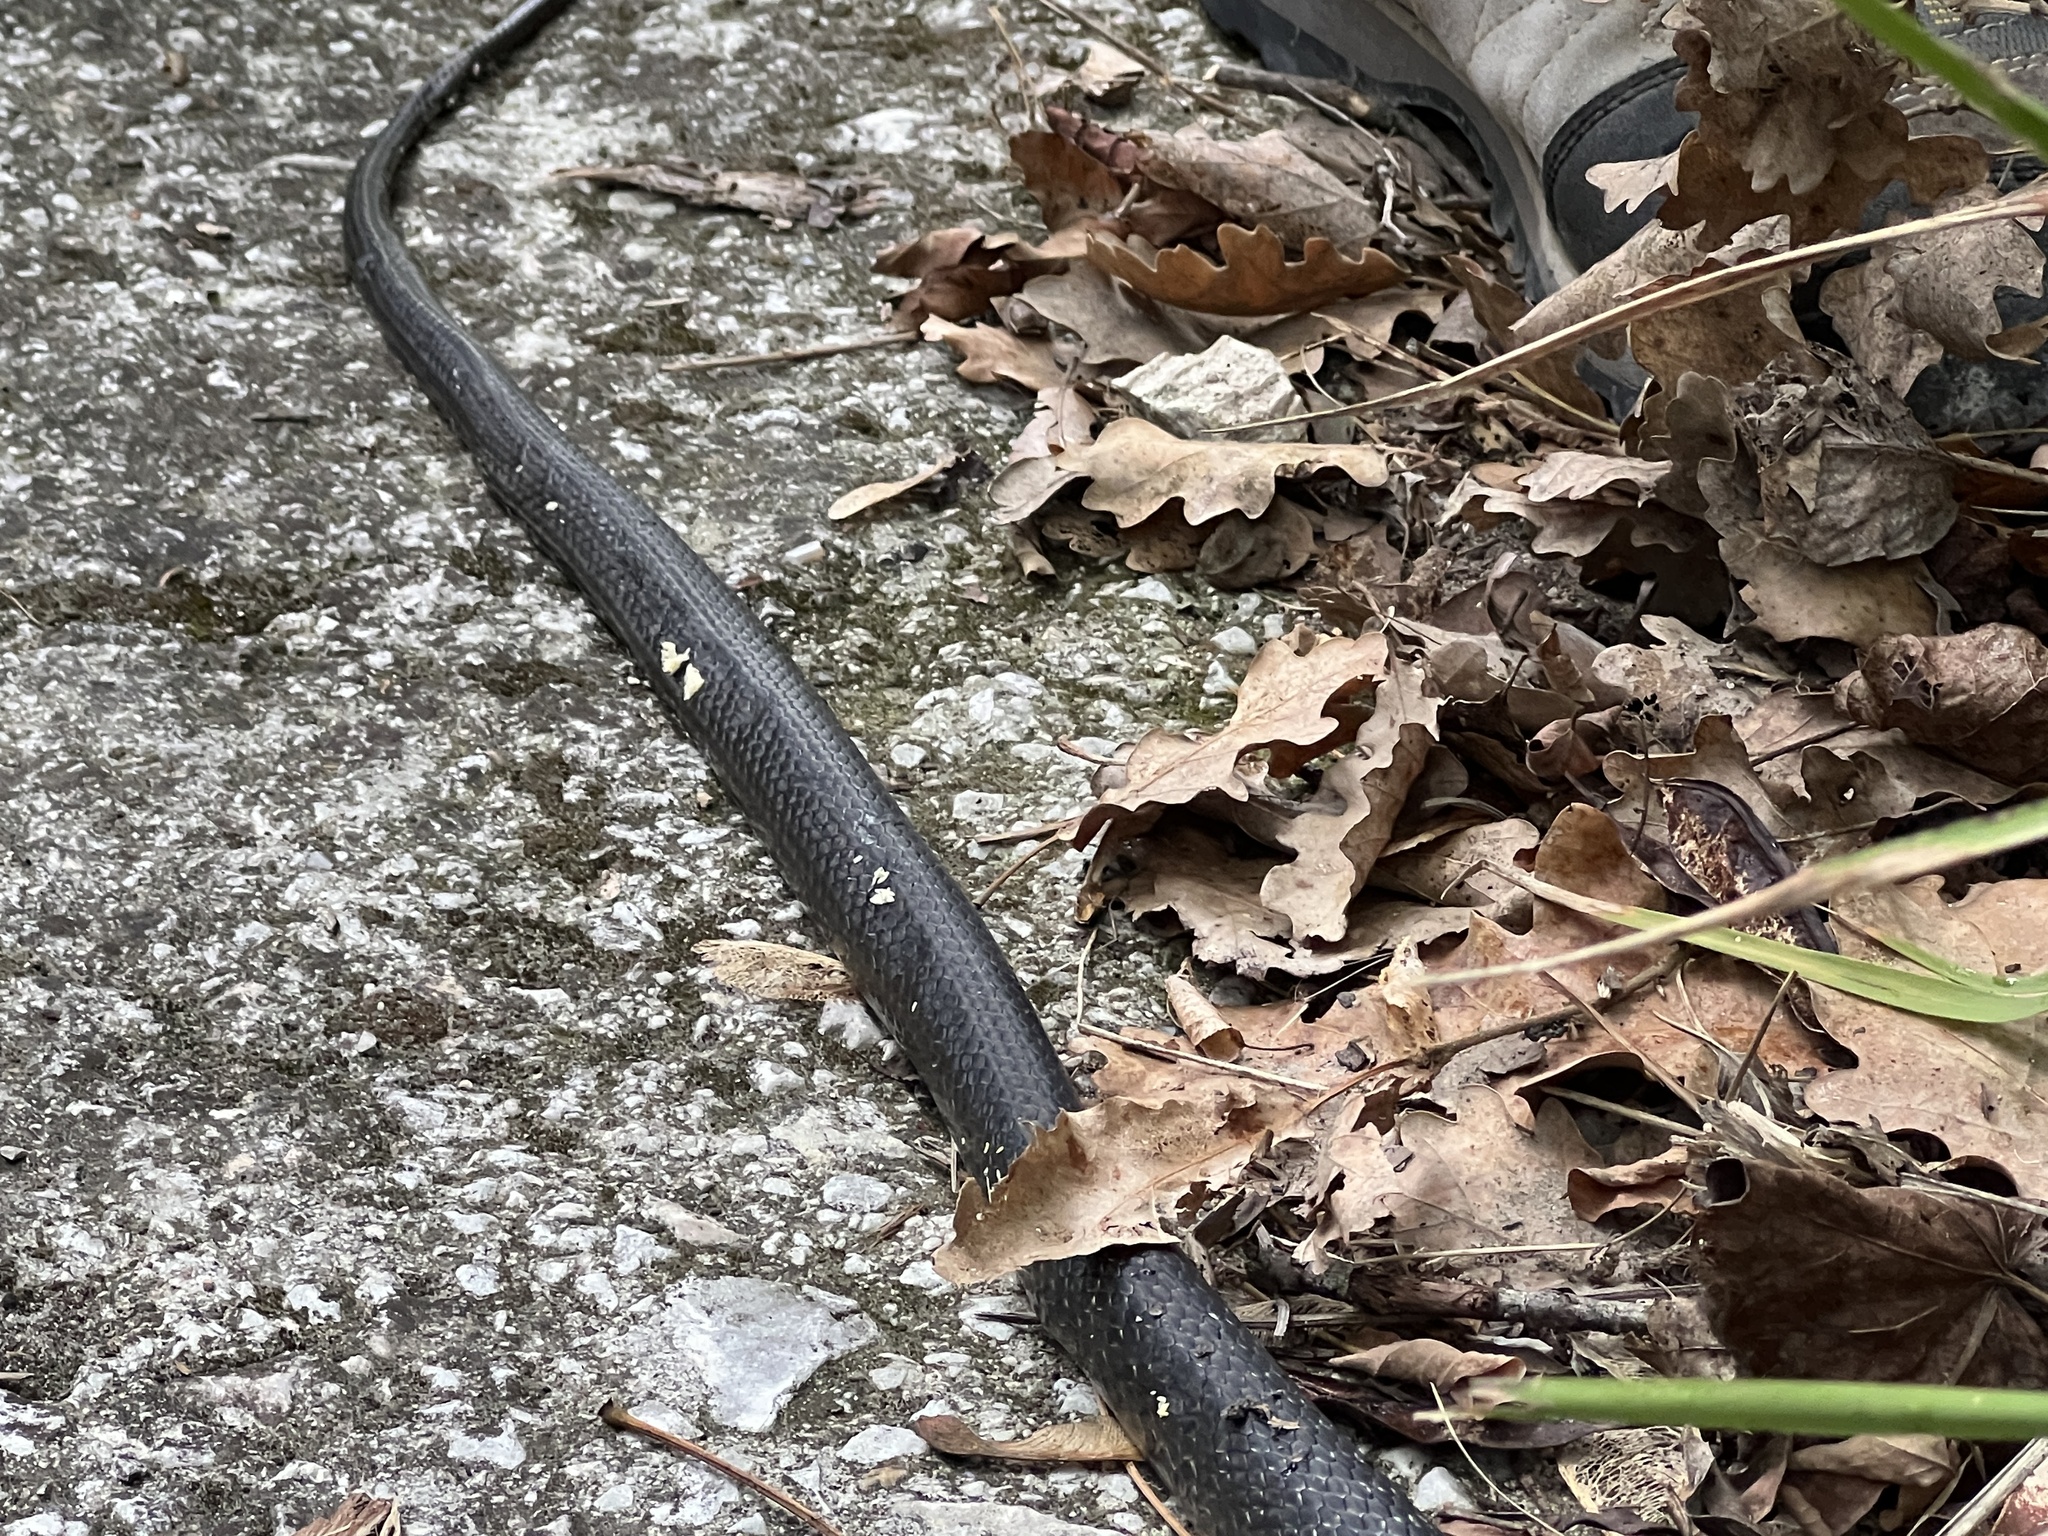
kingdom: Animalia
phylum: Chordata
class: Squamata
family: Colubridae
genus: Hierophis
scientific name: Hierophis viridiflavus
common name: Green whip snake
